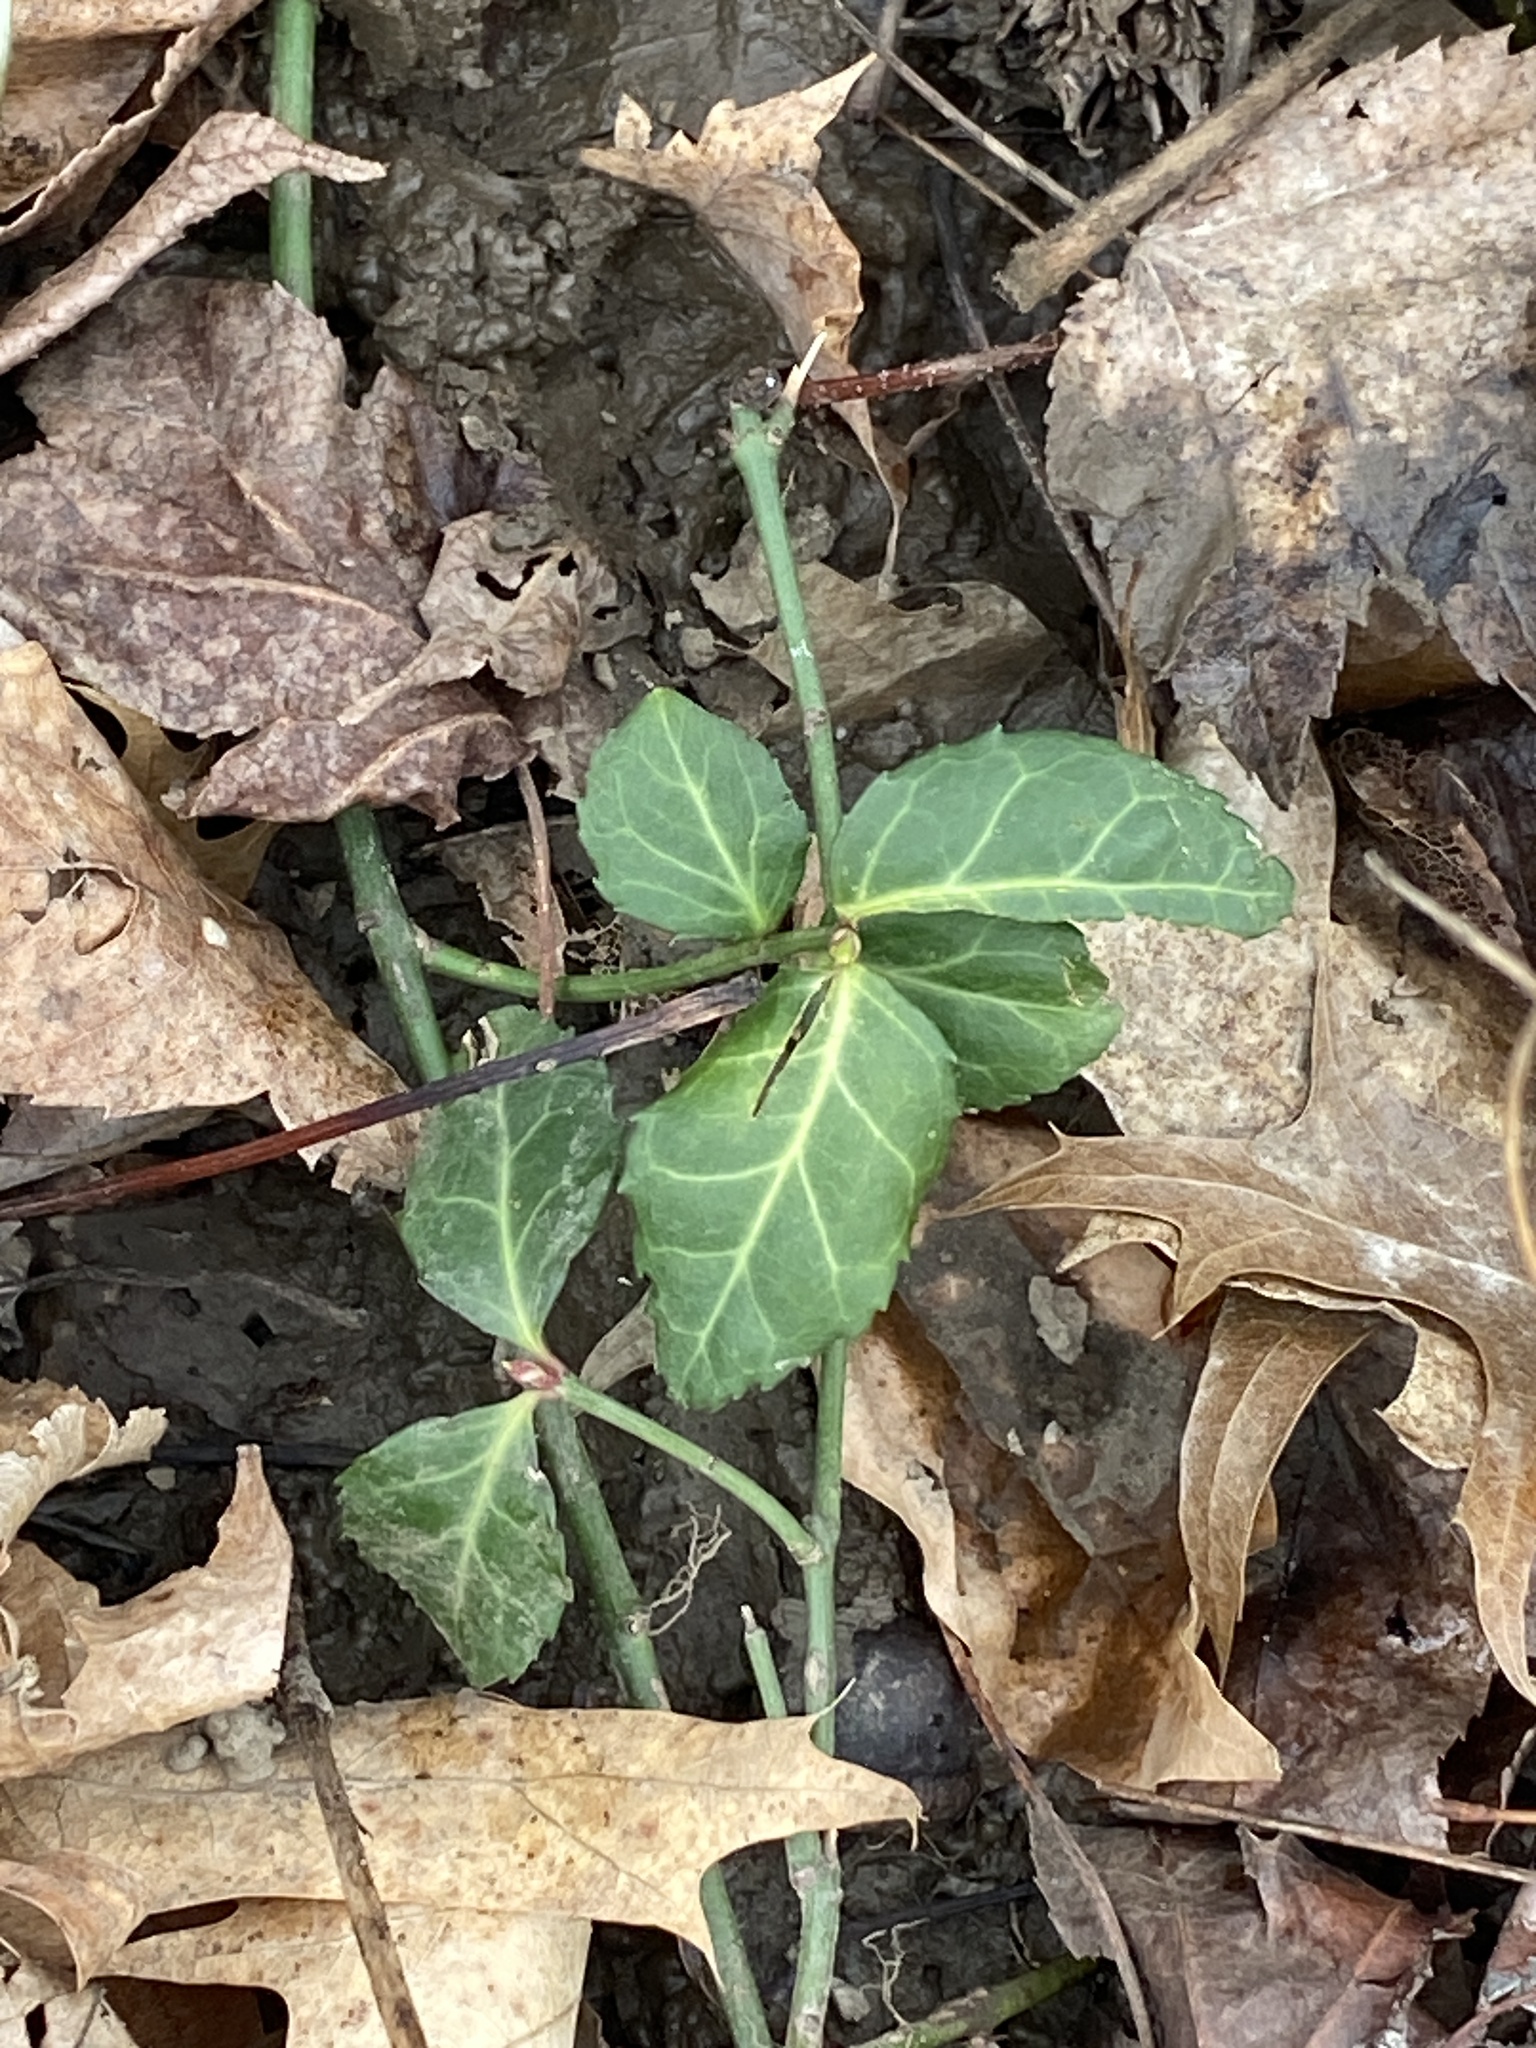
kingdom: Plantae
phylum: Tracheophyta
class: Magnoliopsida
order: Celastrales
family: Celastraceae
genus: Euonymus
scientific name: Euonymus fortunei
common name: Climbing euonymus
